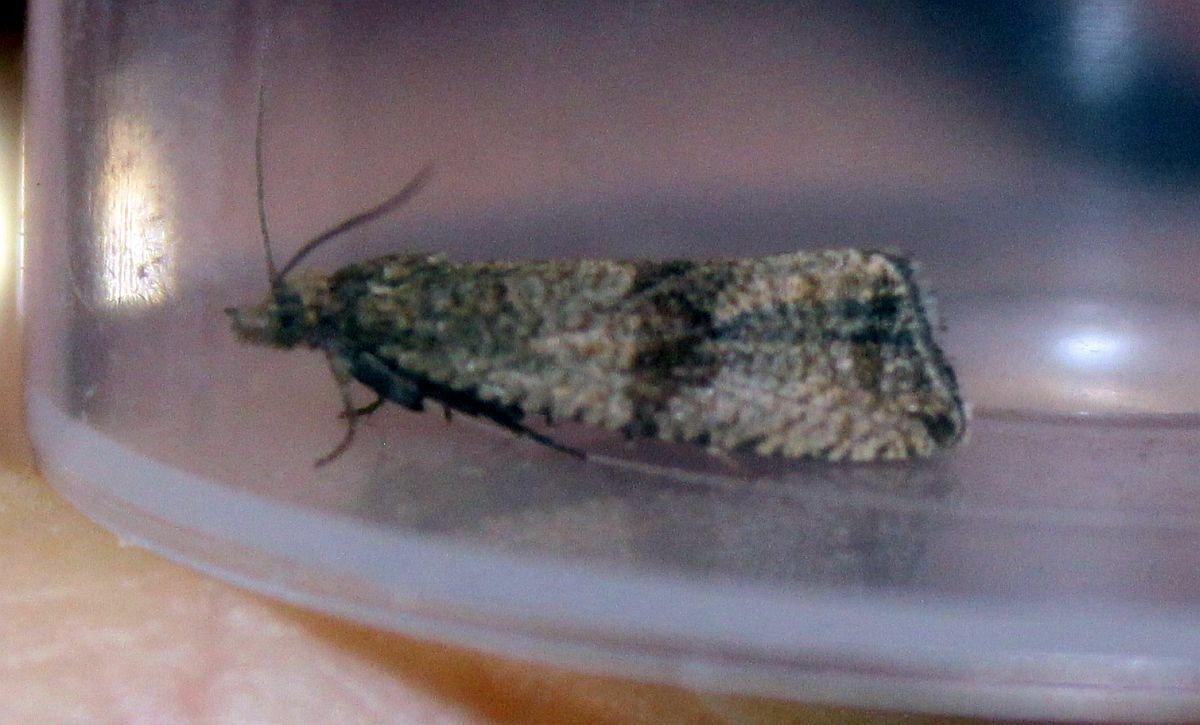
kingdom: Animalia
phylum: Arthropoda
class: Insecta
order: Lepidoptera
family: Tortricidae
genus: Celypha
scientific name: Celypha striana
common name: Barred marble
